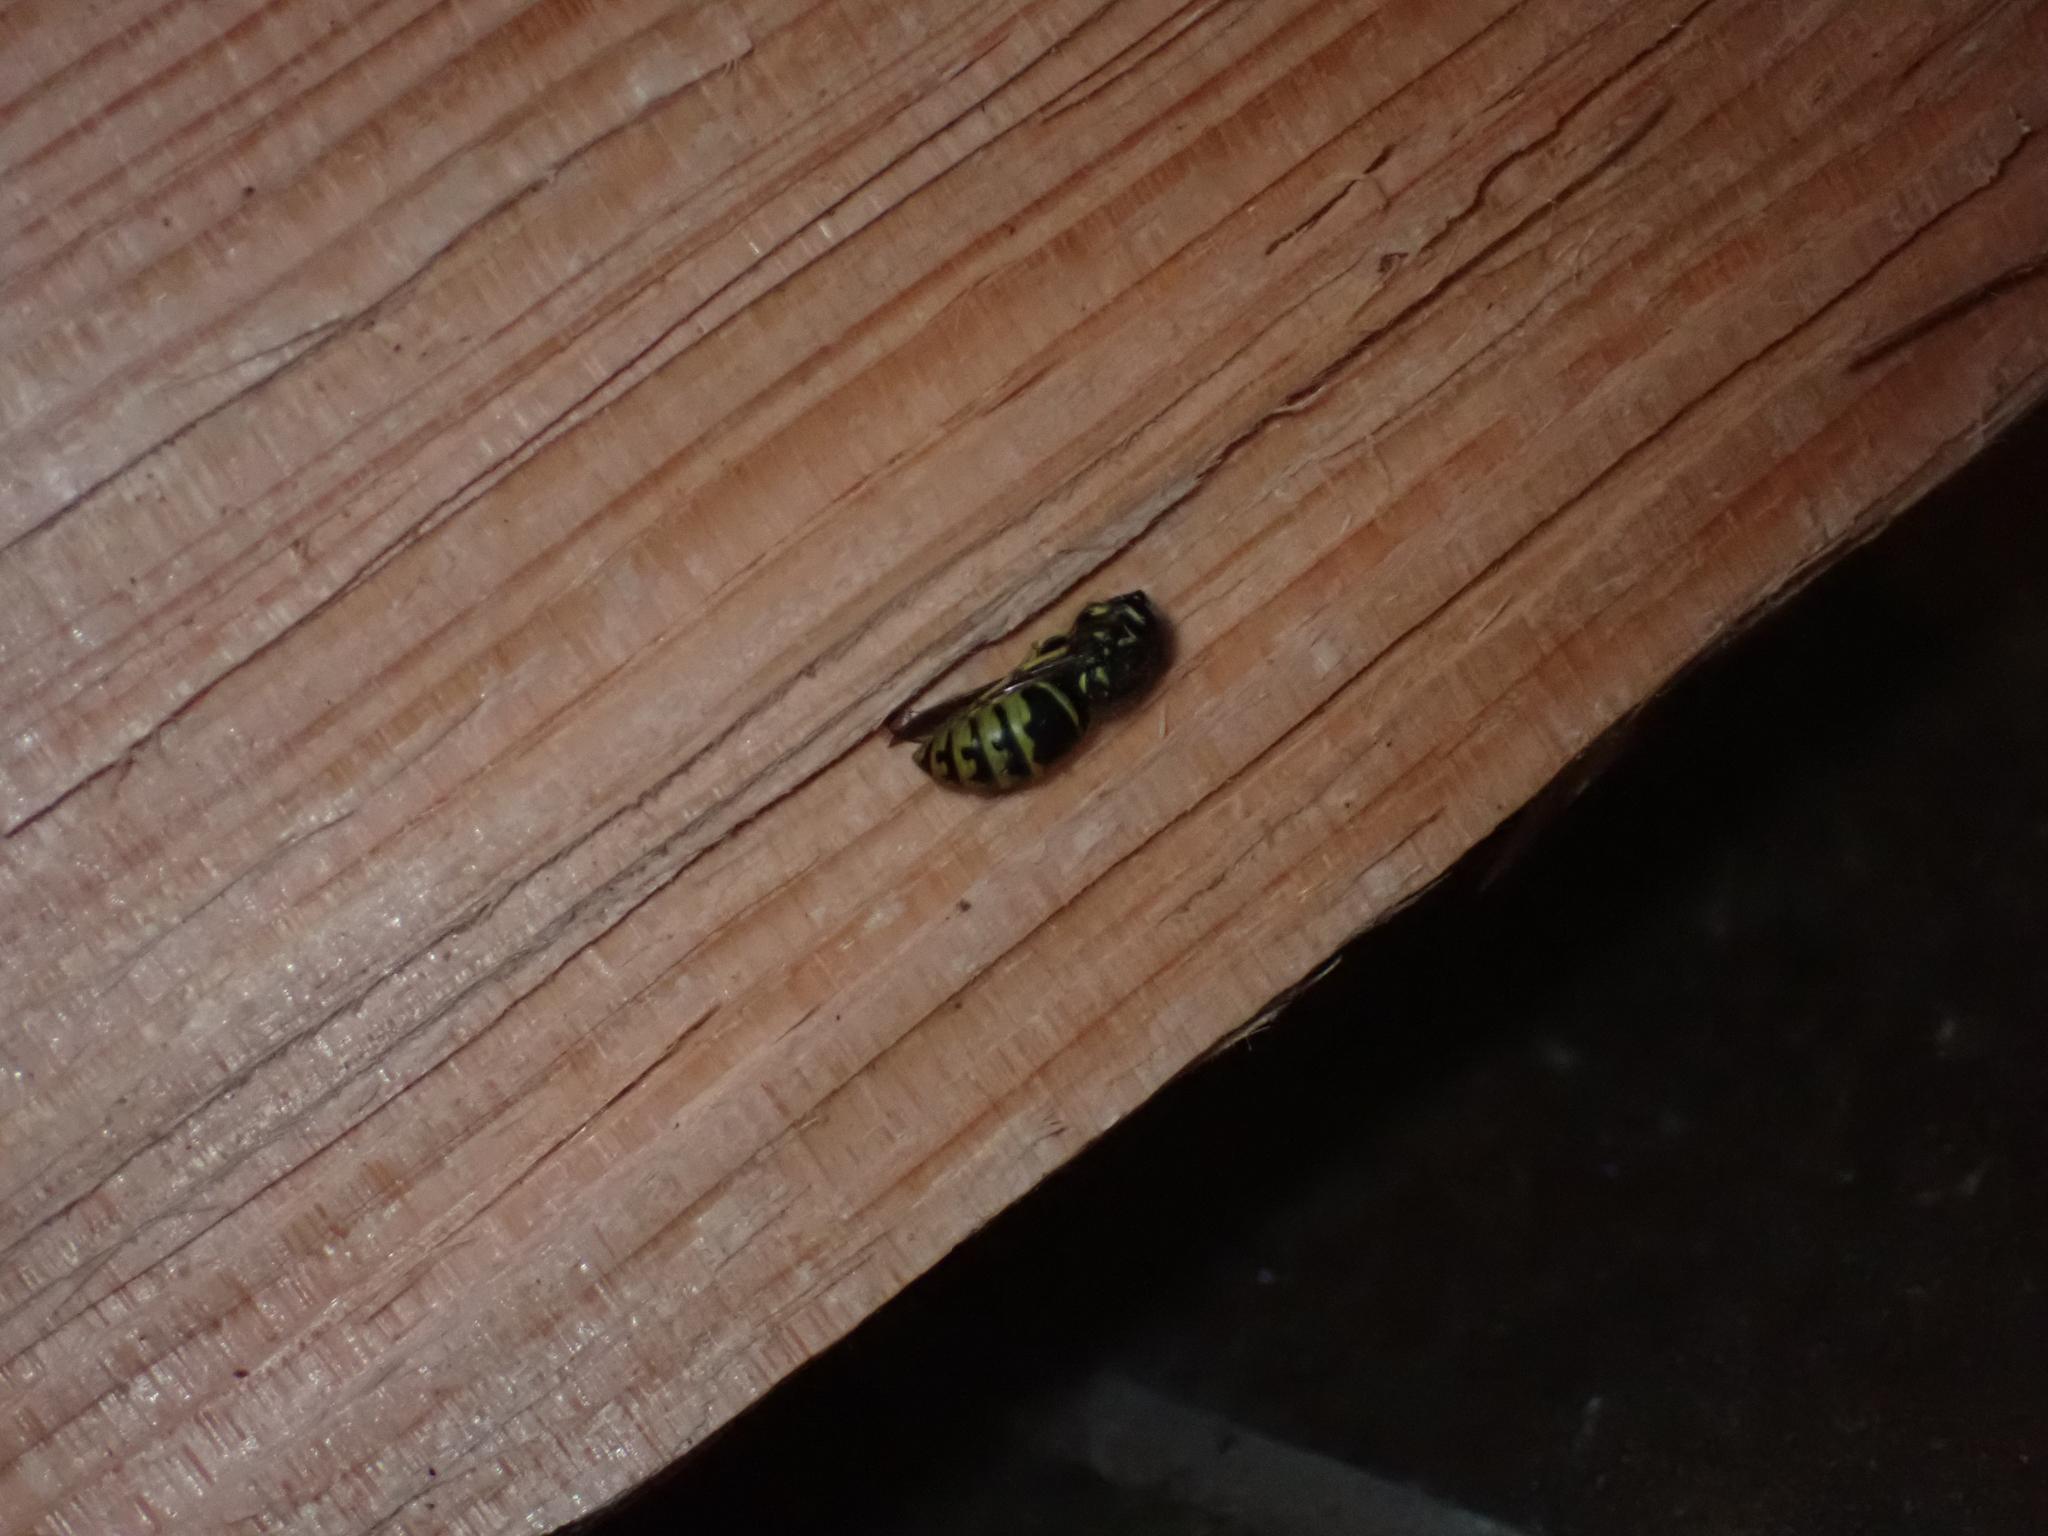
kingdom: Animalia
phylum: Arthropoda
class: Insecta
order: Hymenoptera
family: Vespidae
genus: Dolichovespula
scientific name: Dolichovespula arenaria
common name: Aerial yellowjacket
